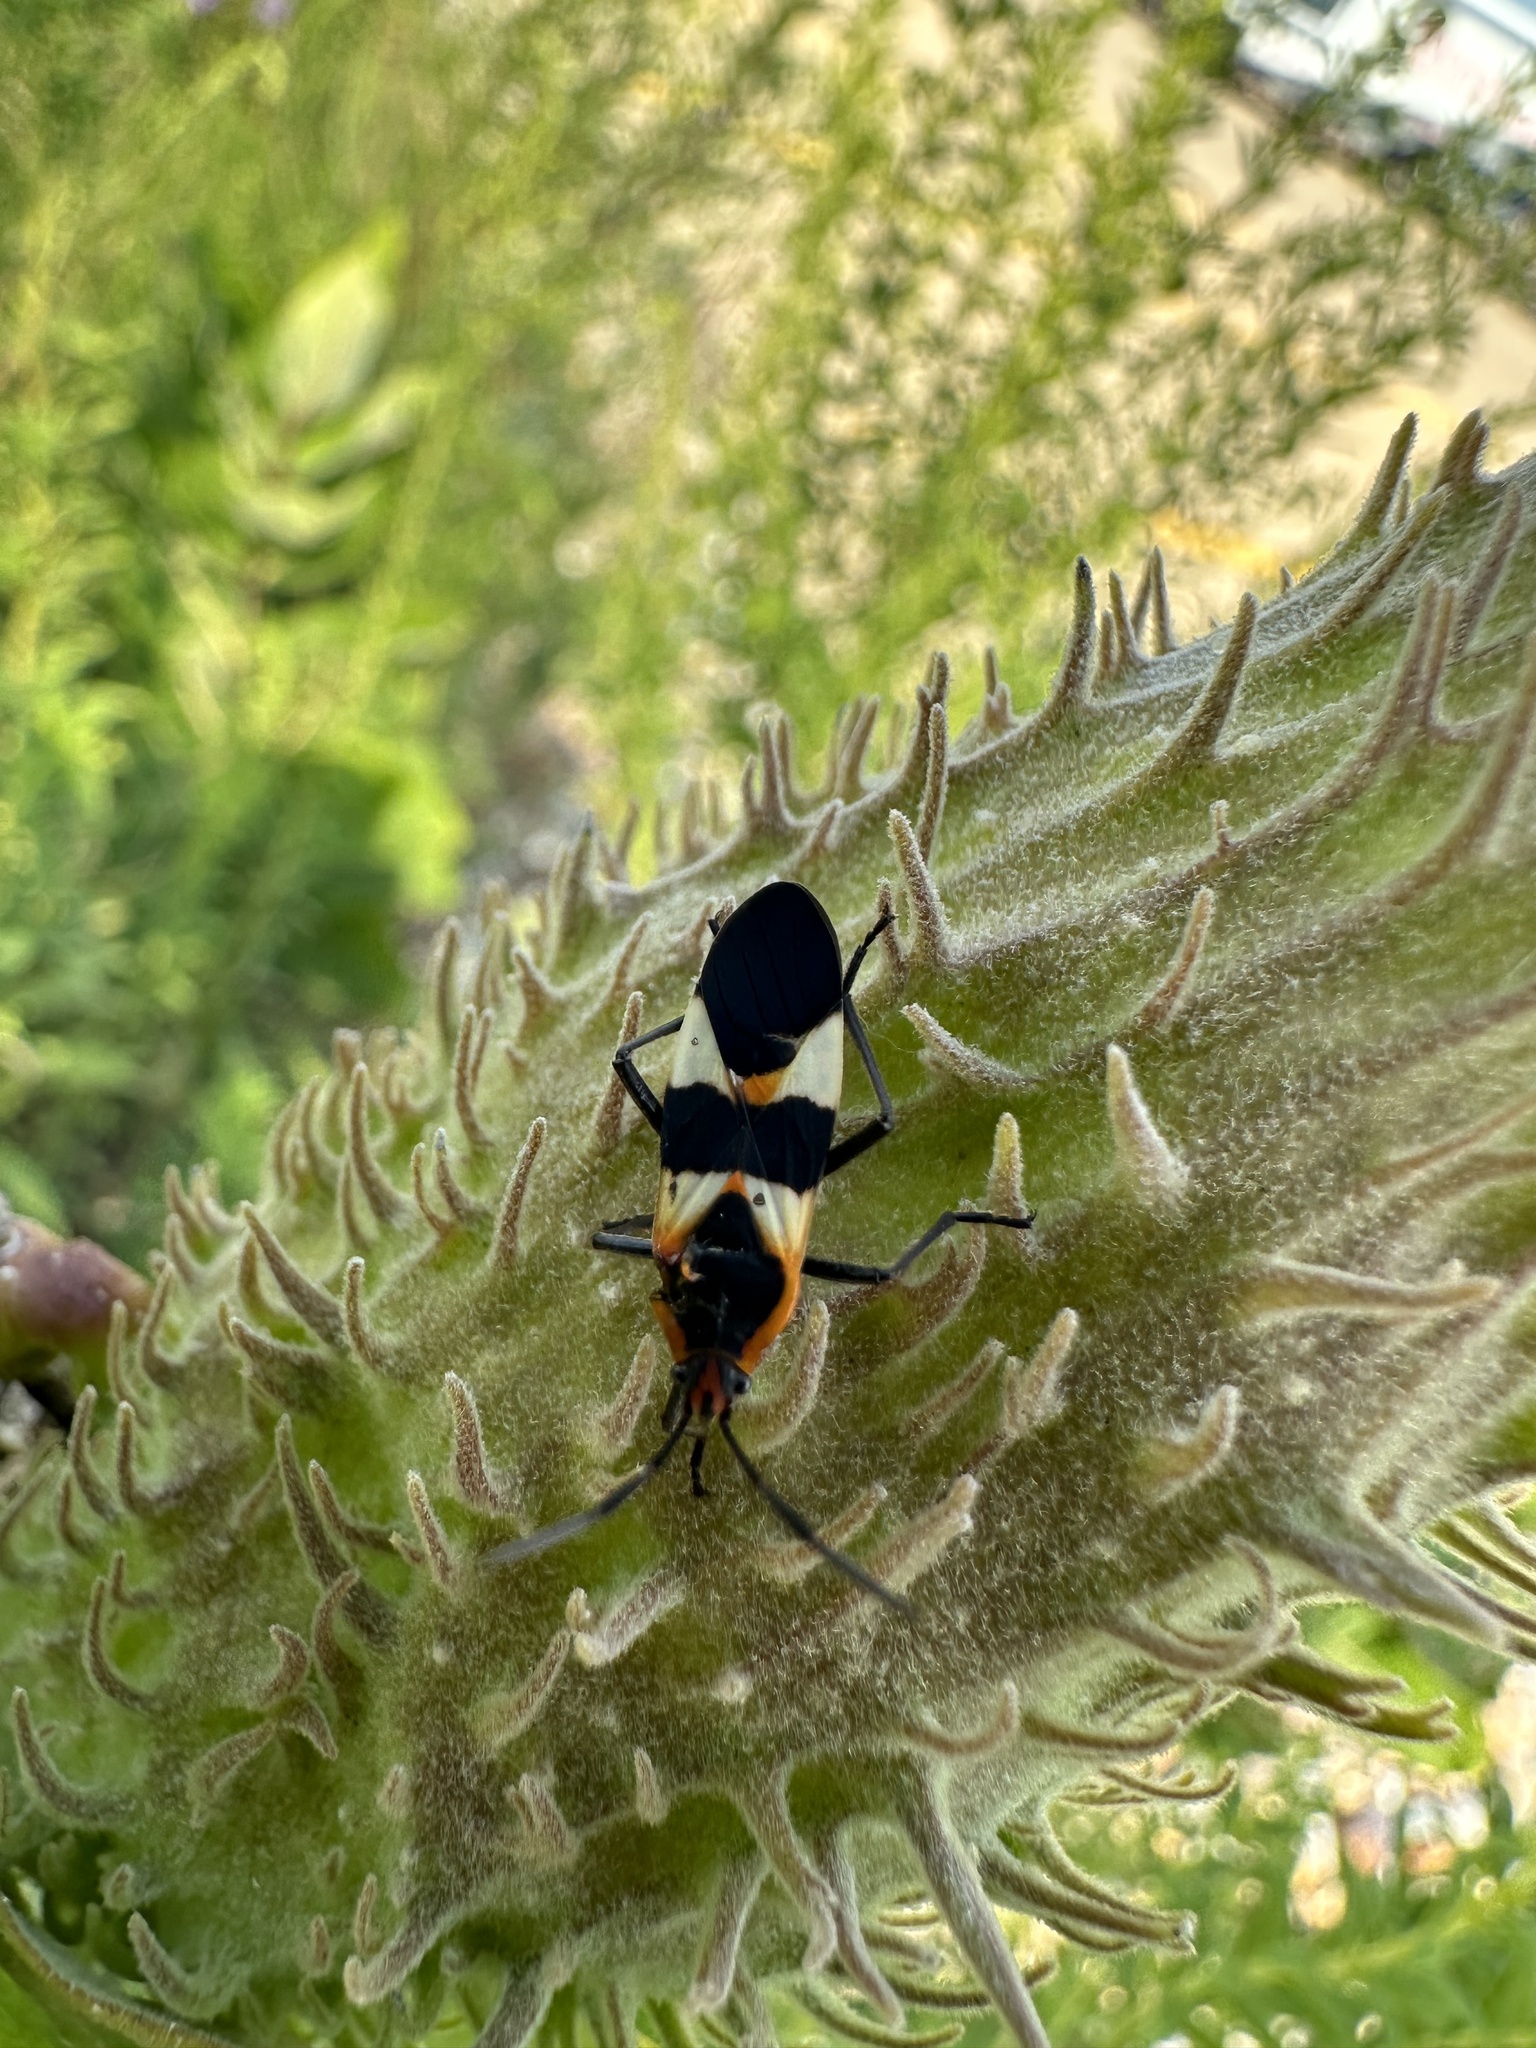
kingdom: Animalia
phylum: Arthropoda
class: Insecta
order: Hemiptera
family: Lygaeidae
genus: Oncopeltus
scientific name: Oncopeltus fasciatus
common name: Large milkweed bug
